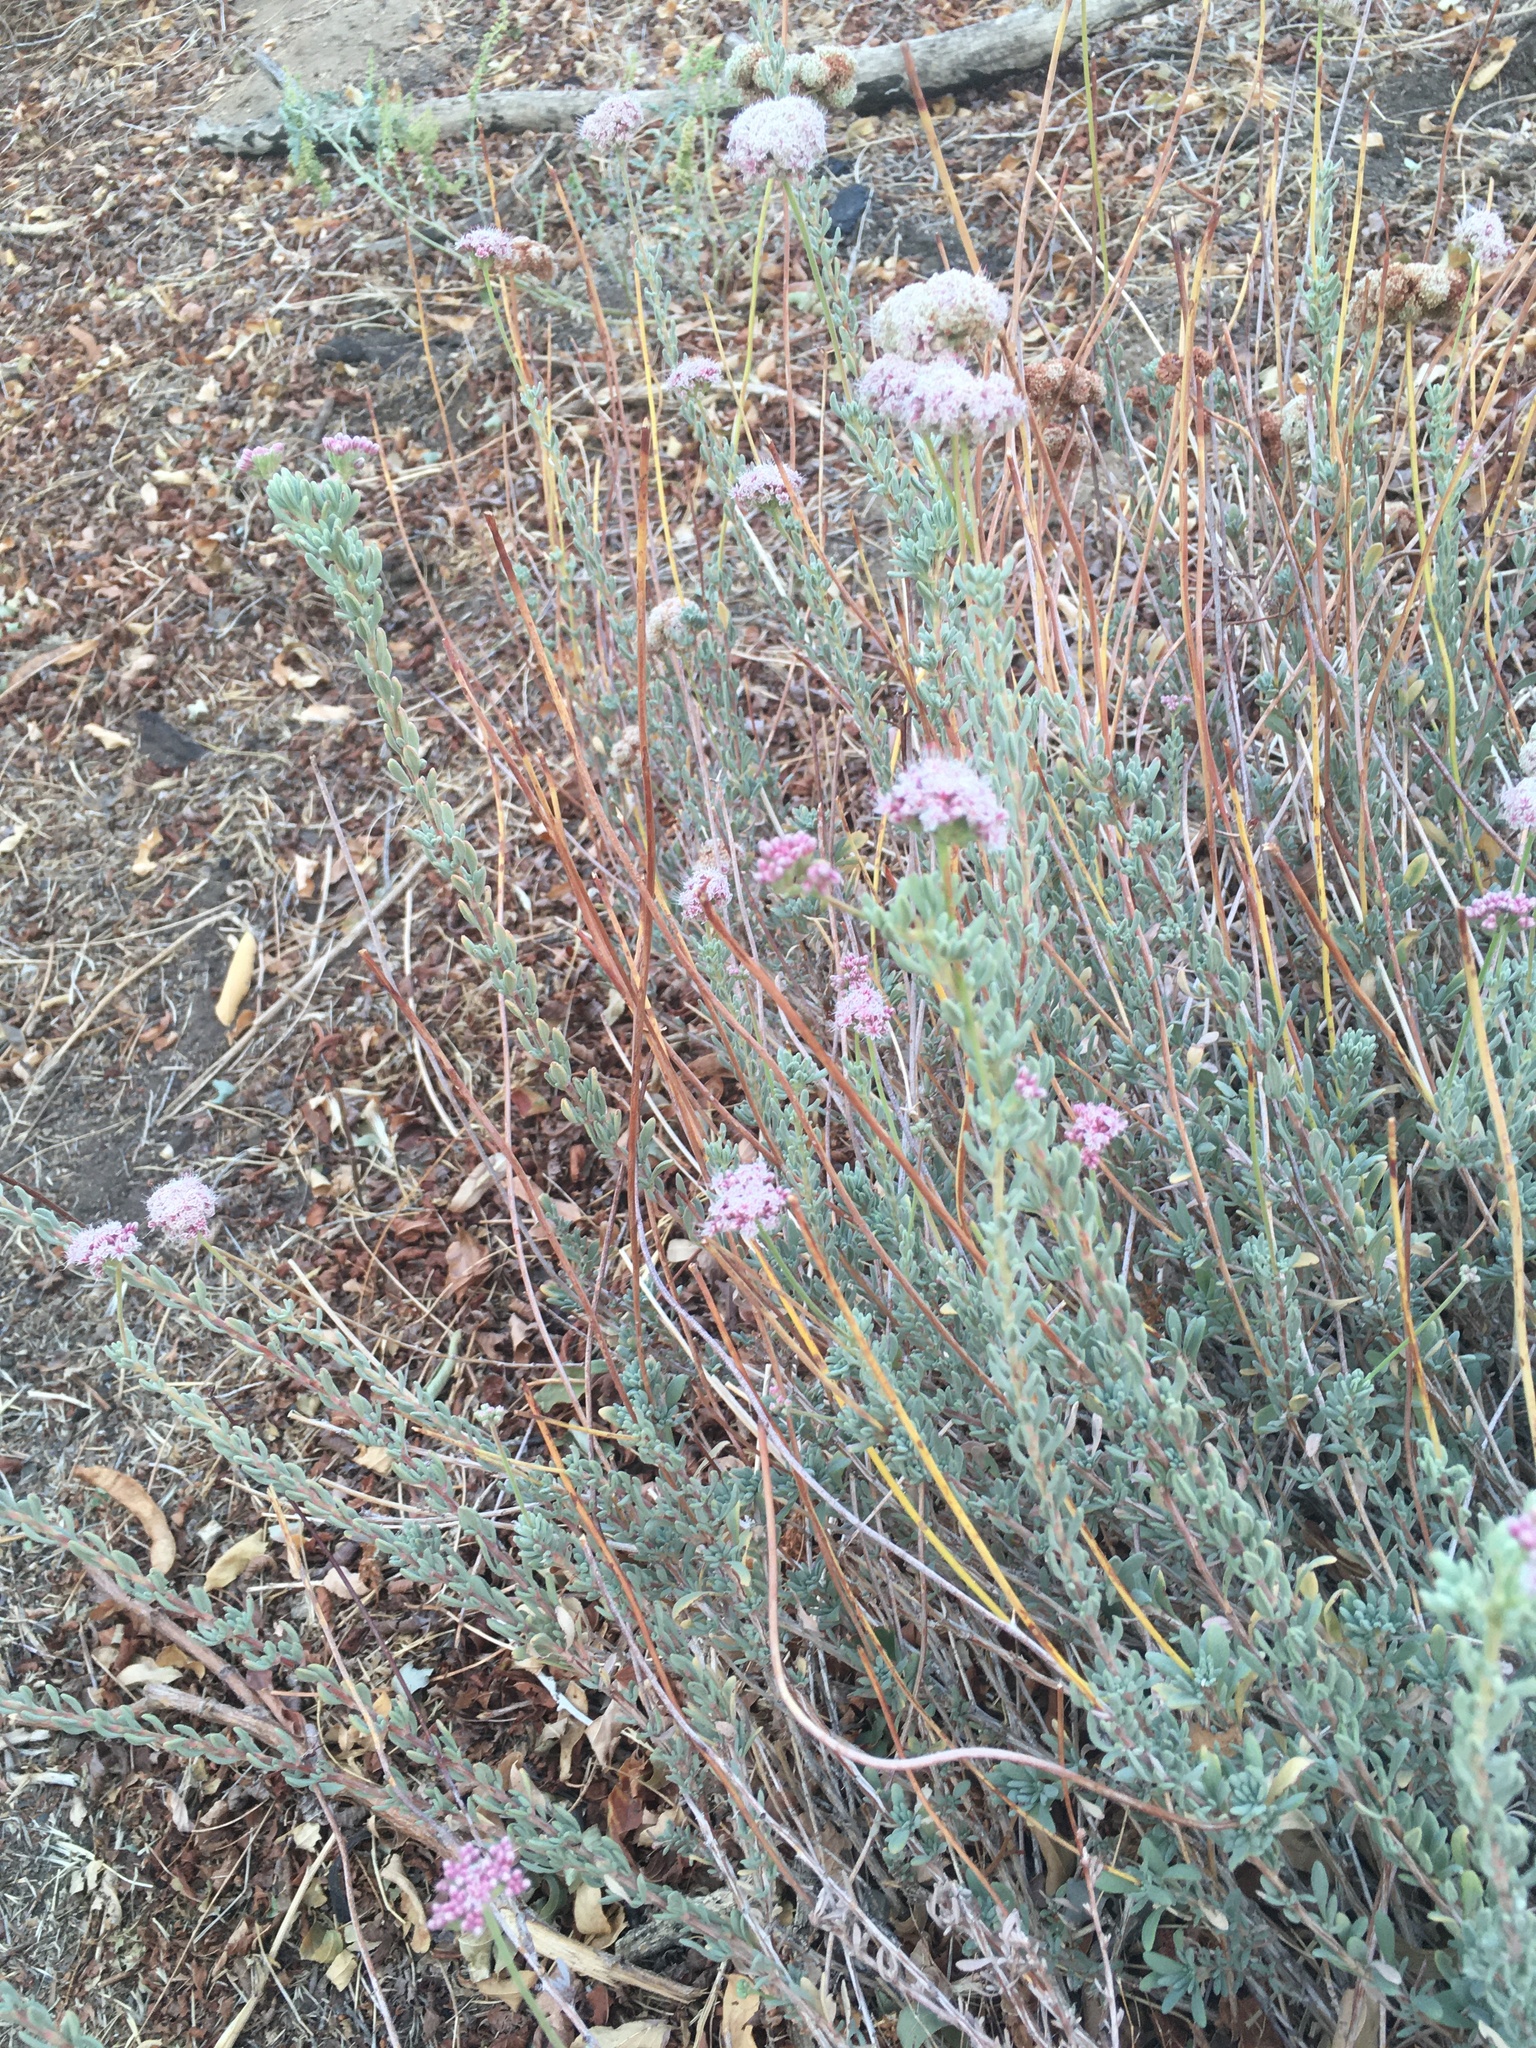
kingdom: Plantae
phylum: Tracheophyta
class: Magnoliopsida
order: Caryophyllales
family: Polygonaceae
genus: Eriogonum
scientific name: Eriogonum fasciculatum
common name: California wild buckwheat
